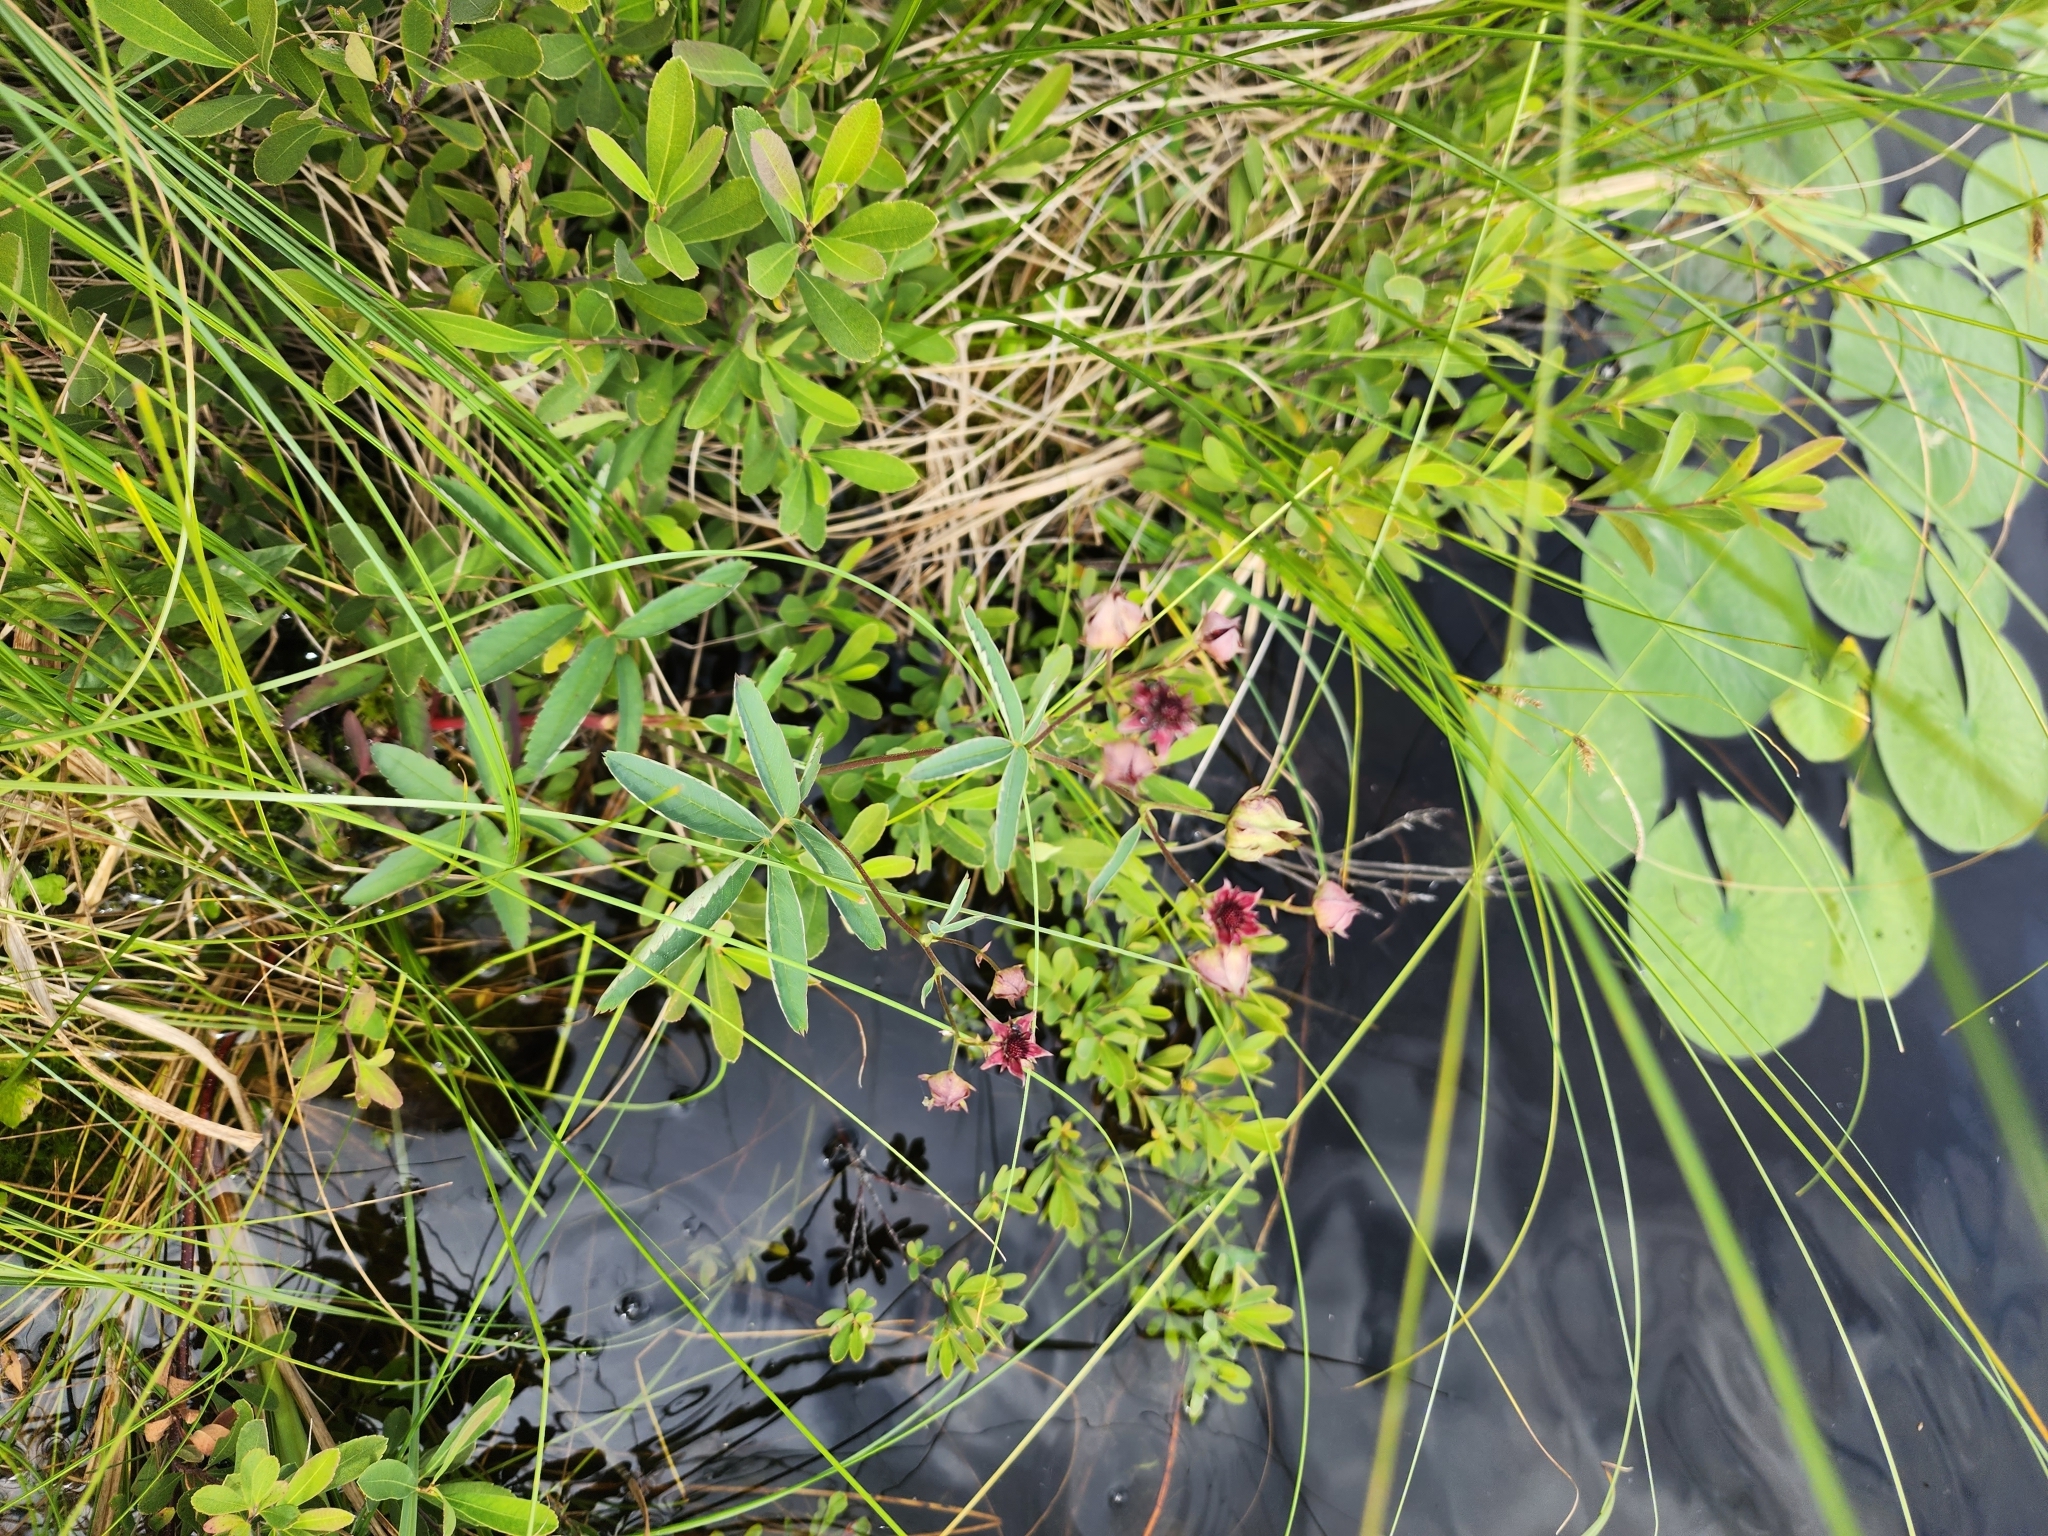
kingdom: Plantae
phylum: Tracheophyta
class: Magnoliopsida
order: Rosales
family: Rosaceae
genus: Comarum
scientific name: Comarum palustre
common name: Marsh cinquefoil
